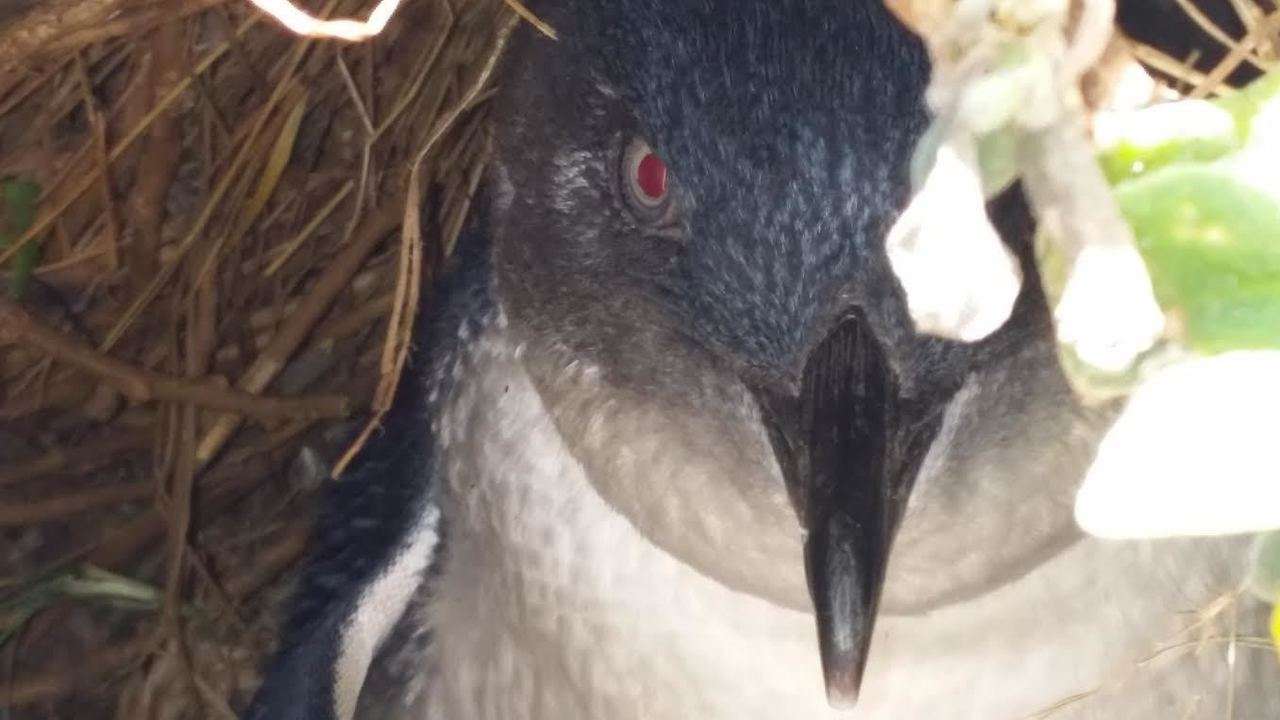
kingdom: Animalia
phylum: Chordata
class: Aves
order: Sphenisciformes
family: Spheniscidae
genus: Eudyptula
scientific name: Eudyptula minor
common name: Little penguin
